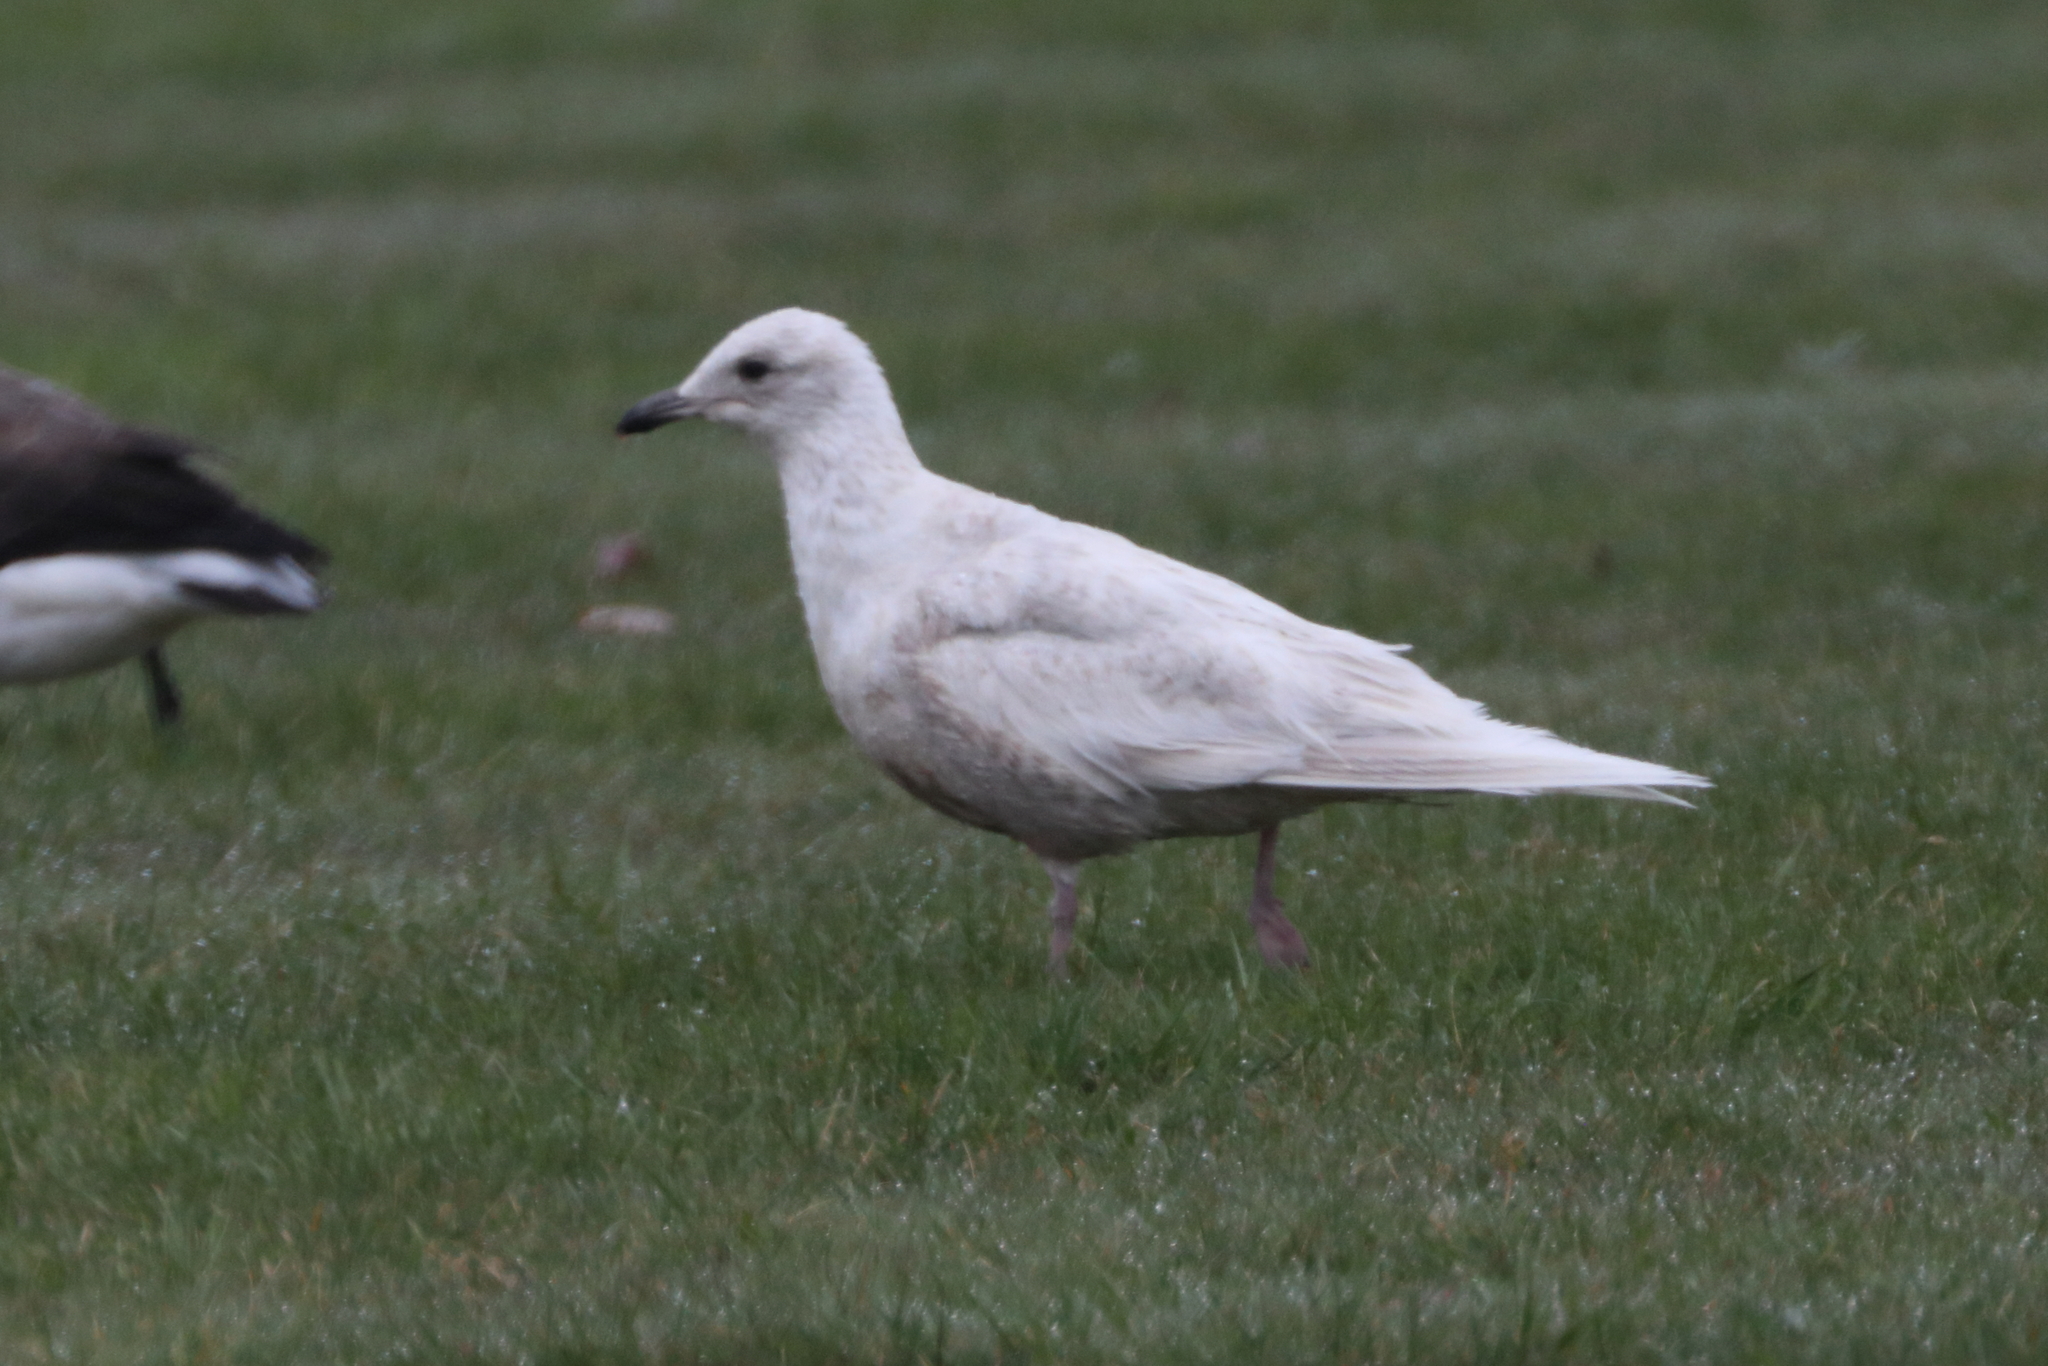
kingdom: Animalia
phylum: Chordata
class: Aves
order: Charadriiformes
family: Laridae
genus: Larus
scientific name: Larus glaucoides
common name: Iceland gull
